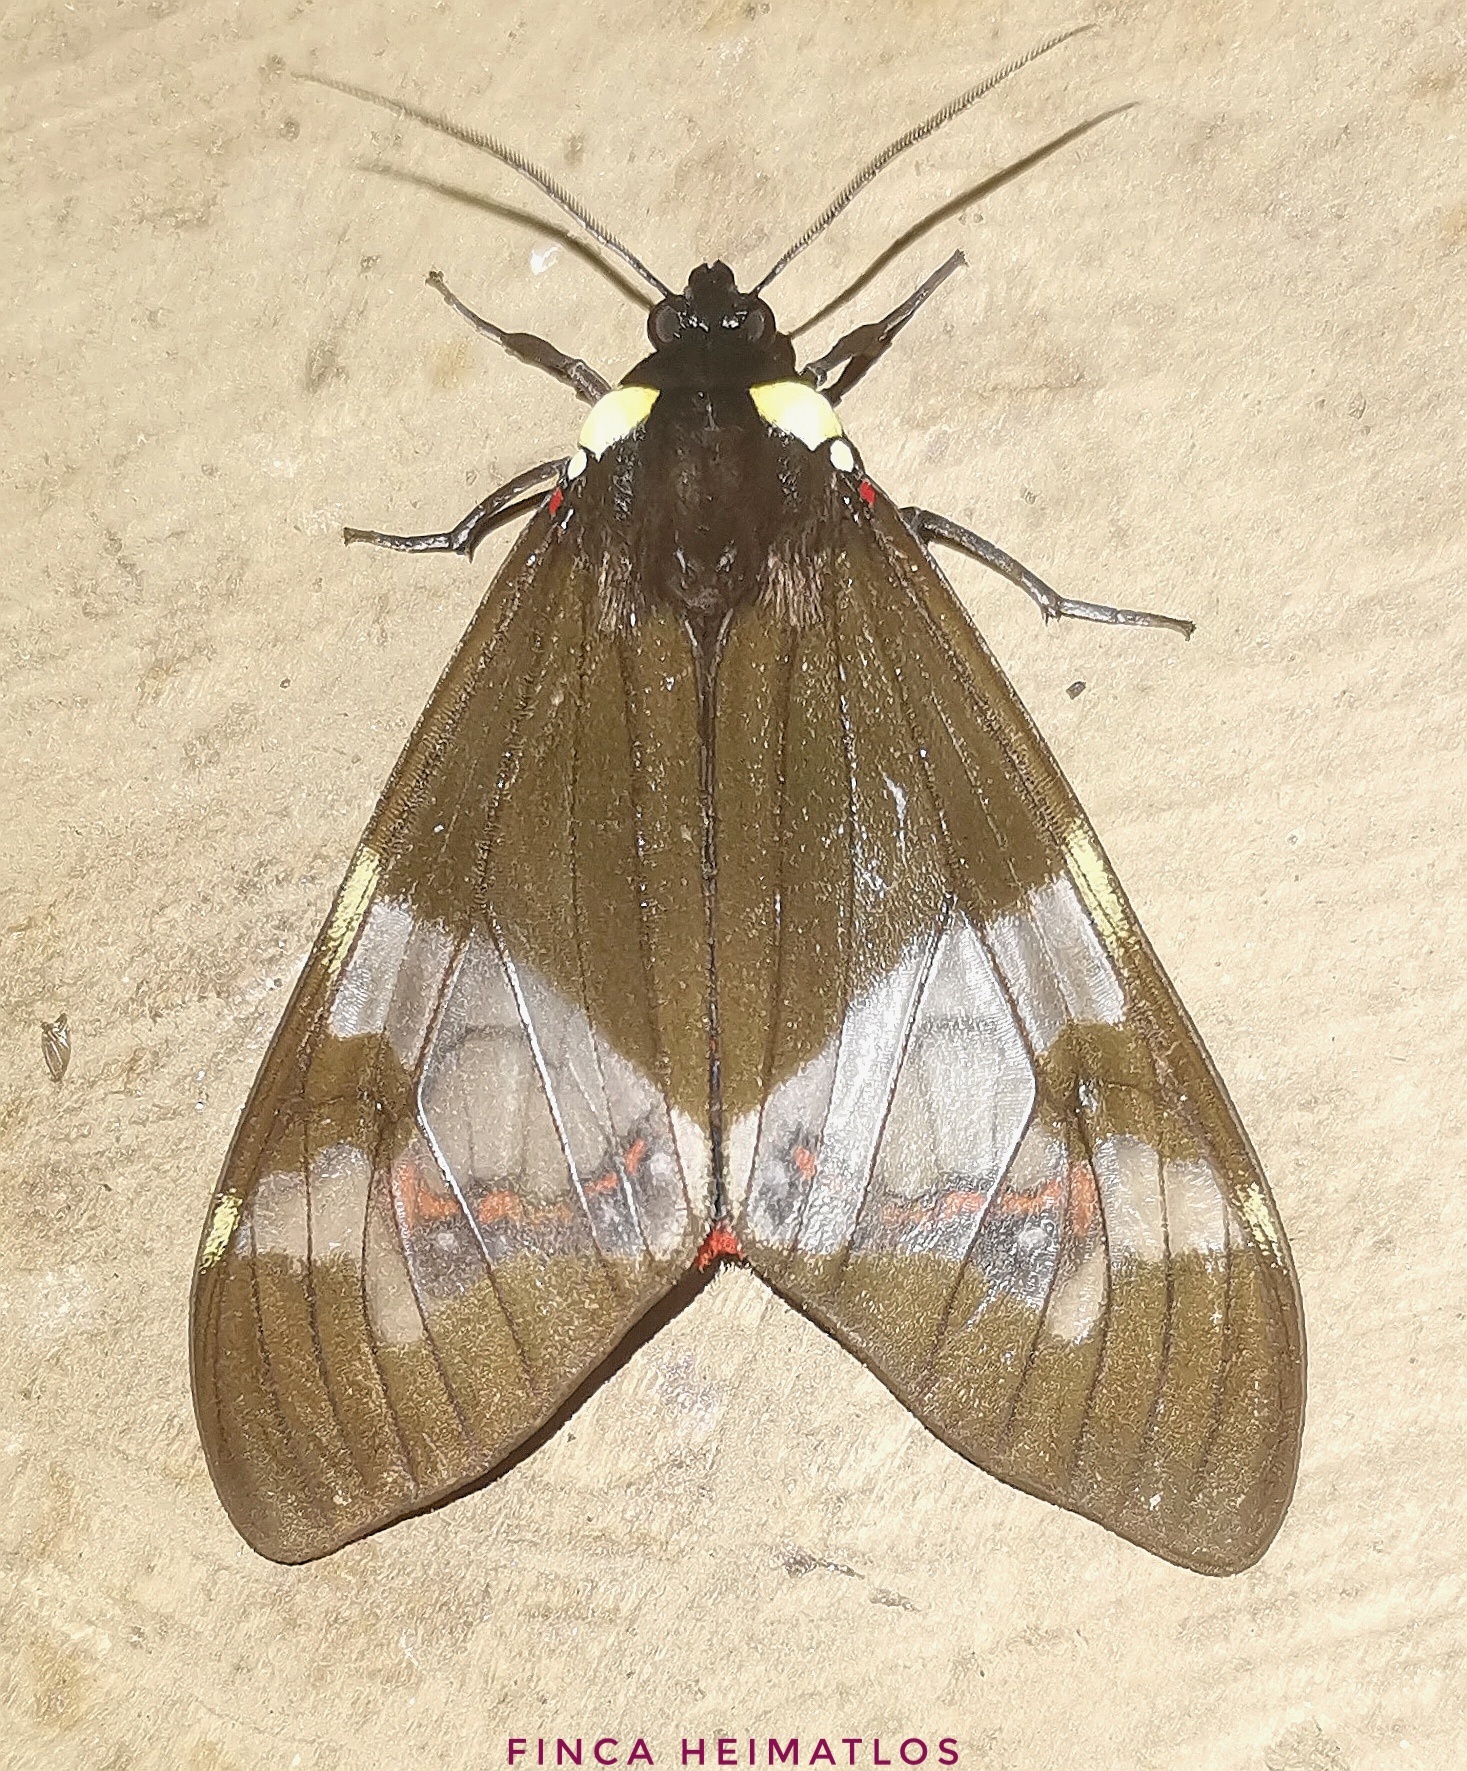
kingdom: Animalia
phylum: Arthropoda
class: Insecta
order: Lepidoptera
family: Erebidae
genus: Dysschema
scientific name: Dysschema marginalis
